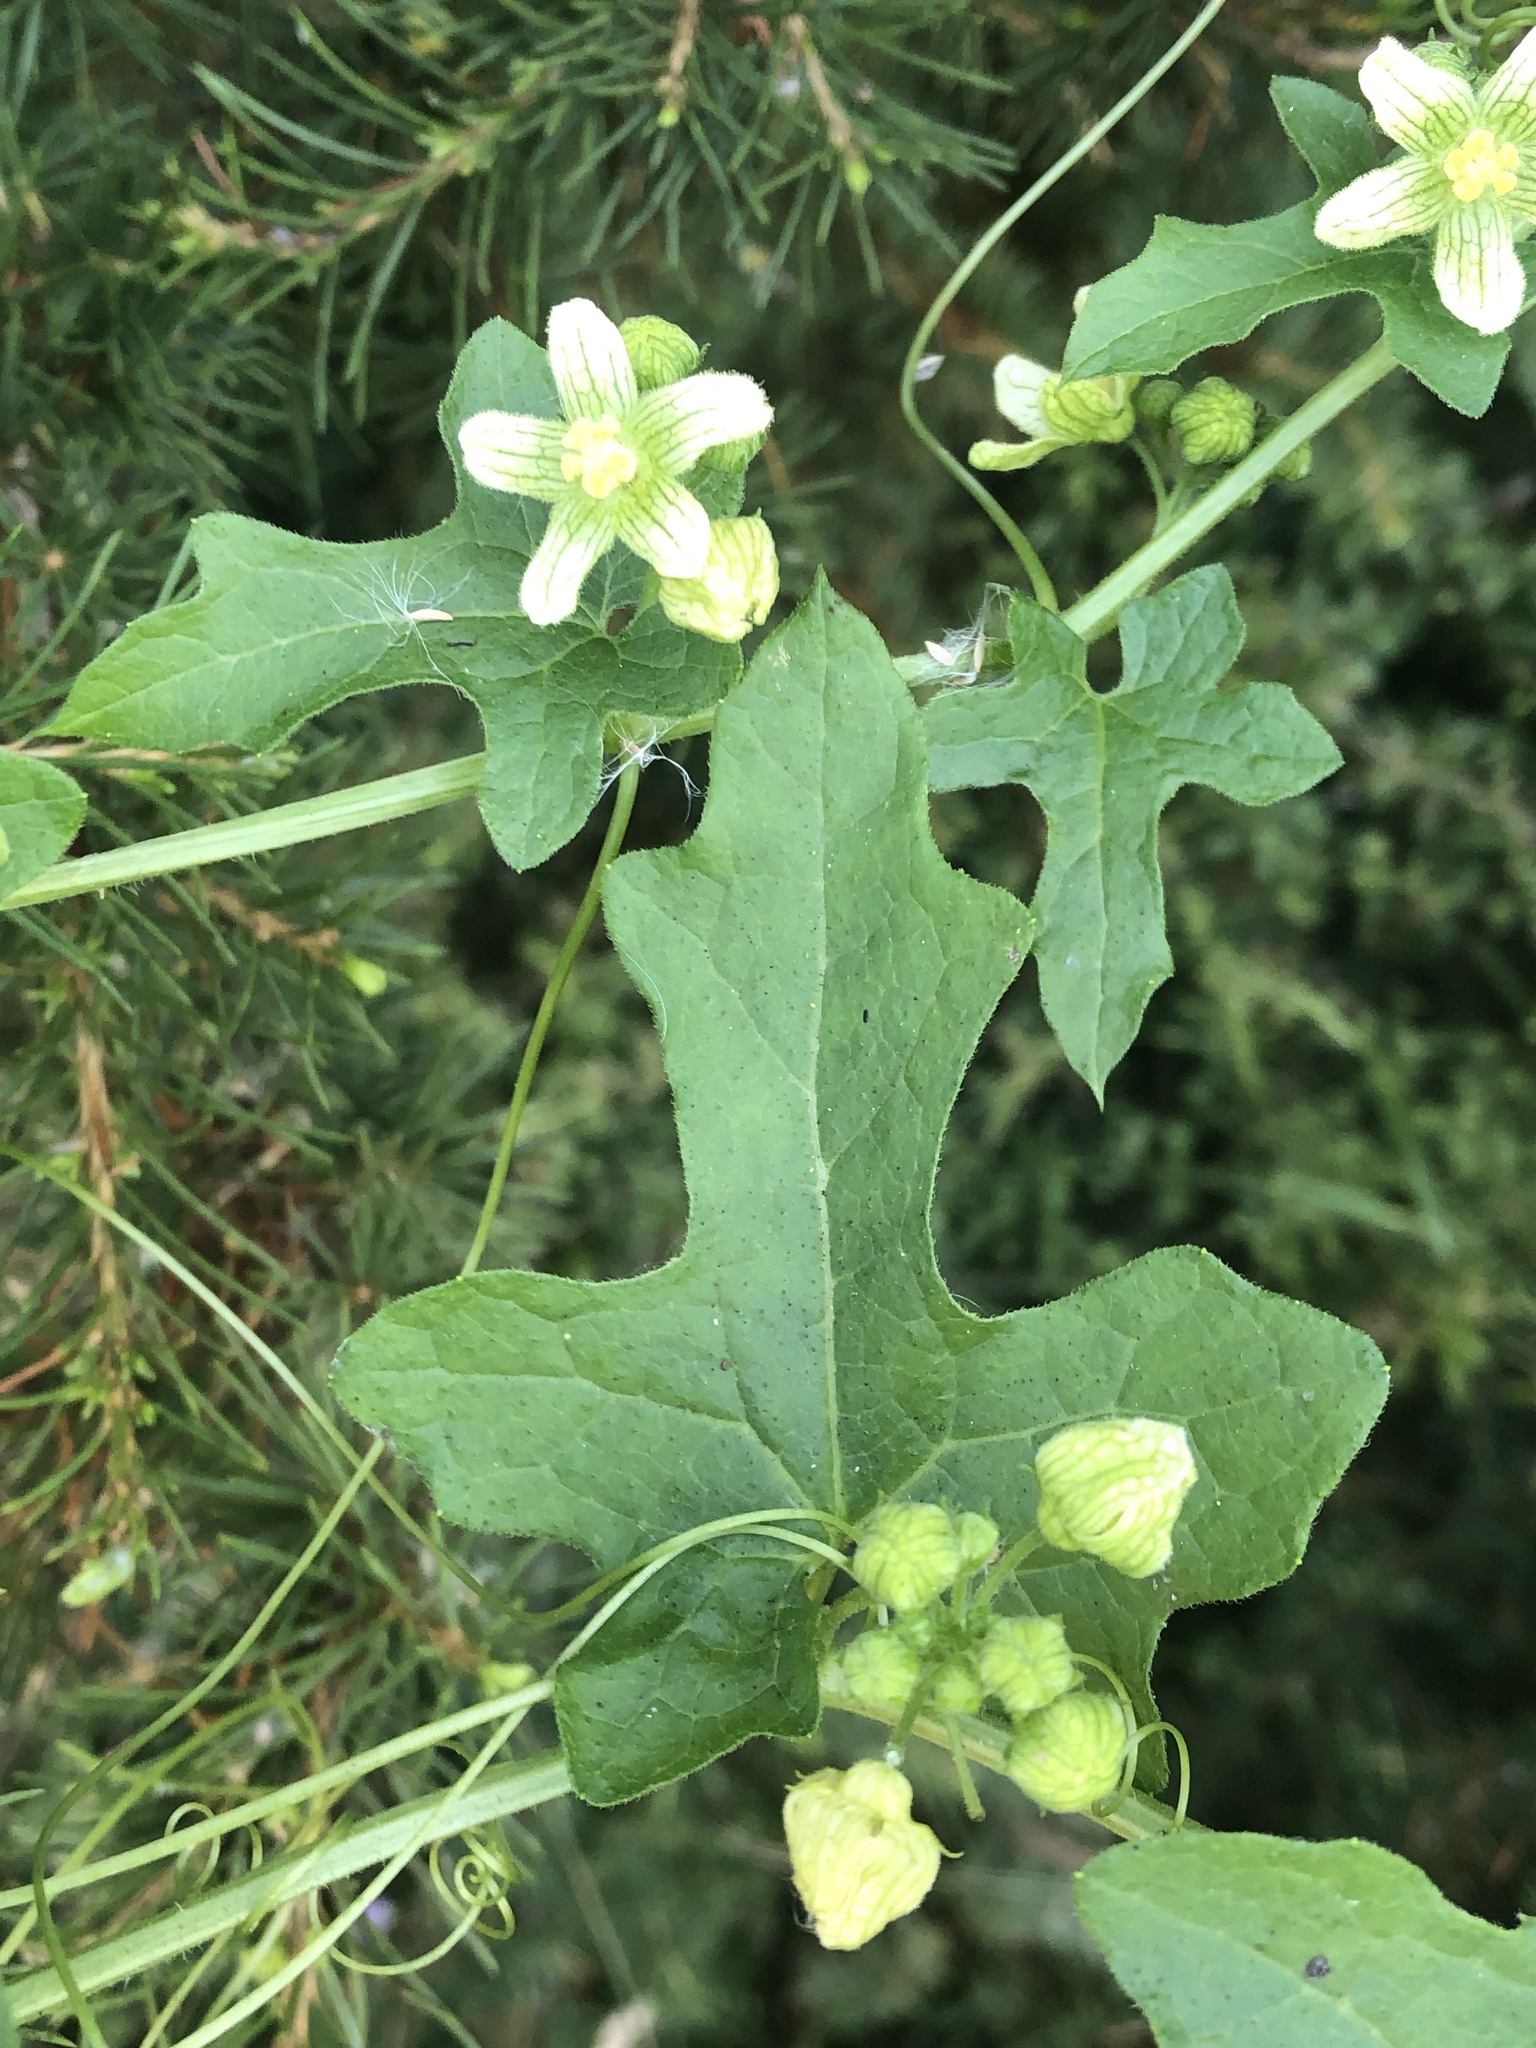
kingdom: Plantae
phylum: Tracheophyta
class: Magnoliopsida
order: Cucurbitales
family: Cucurbitaceae
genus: Bryonia
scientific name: Bryonia cretica
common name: Cretan bryony
